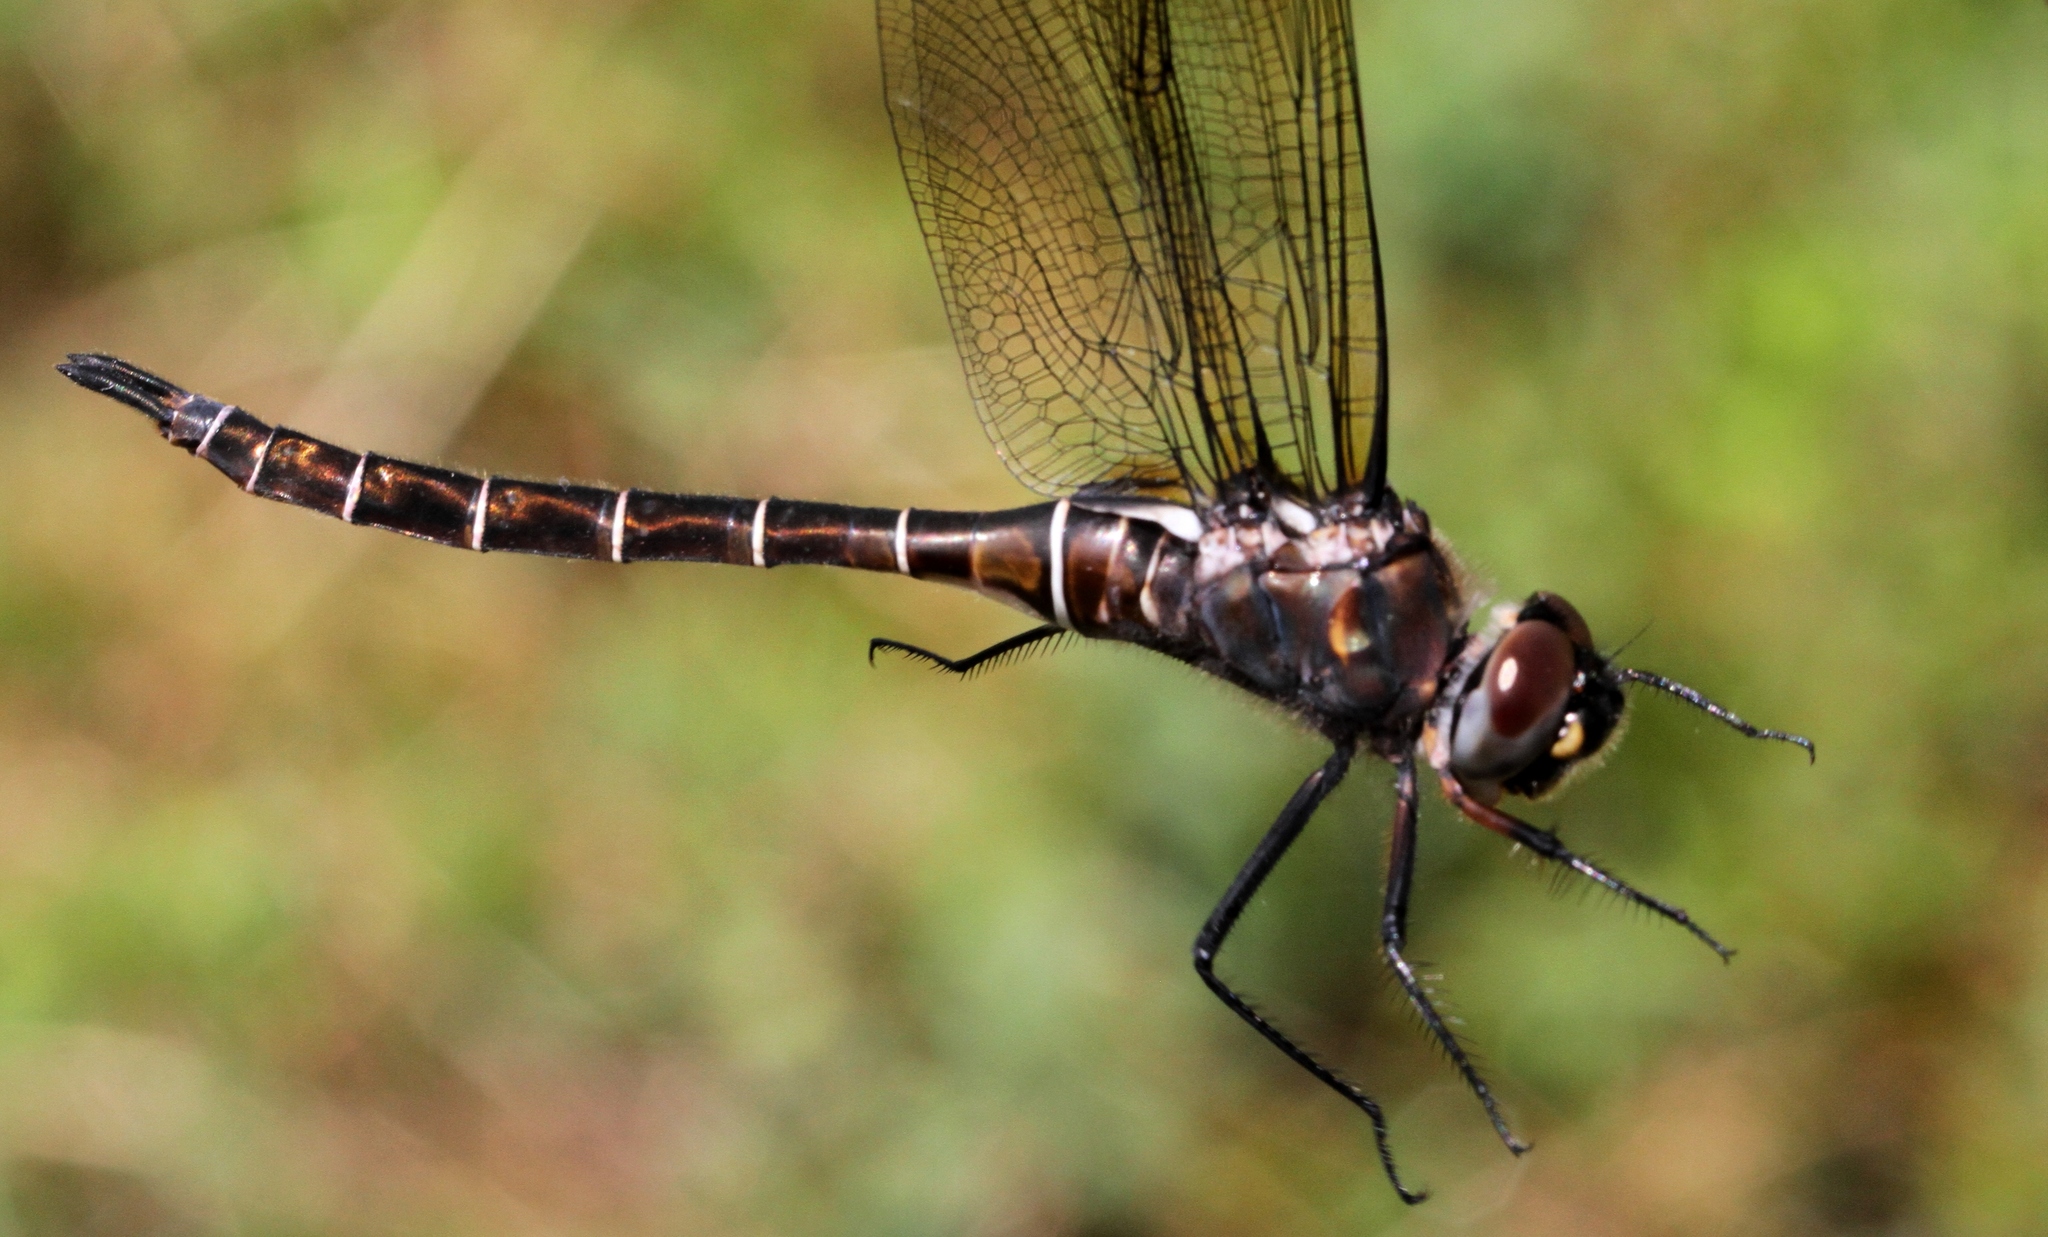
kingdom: Animalia
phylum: Arthropoda
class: Insecta
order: Odonata
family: Corduliidae
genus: Somatochlora
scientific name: Somatochlora cingulata
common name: Lake emerald
